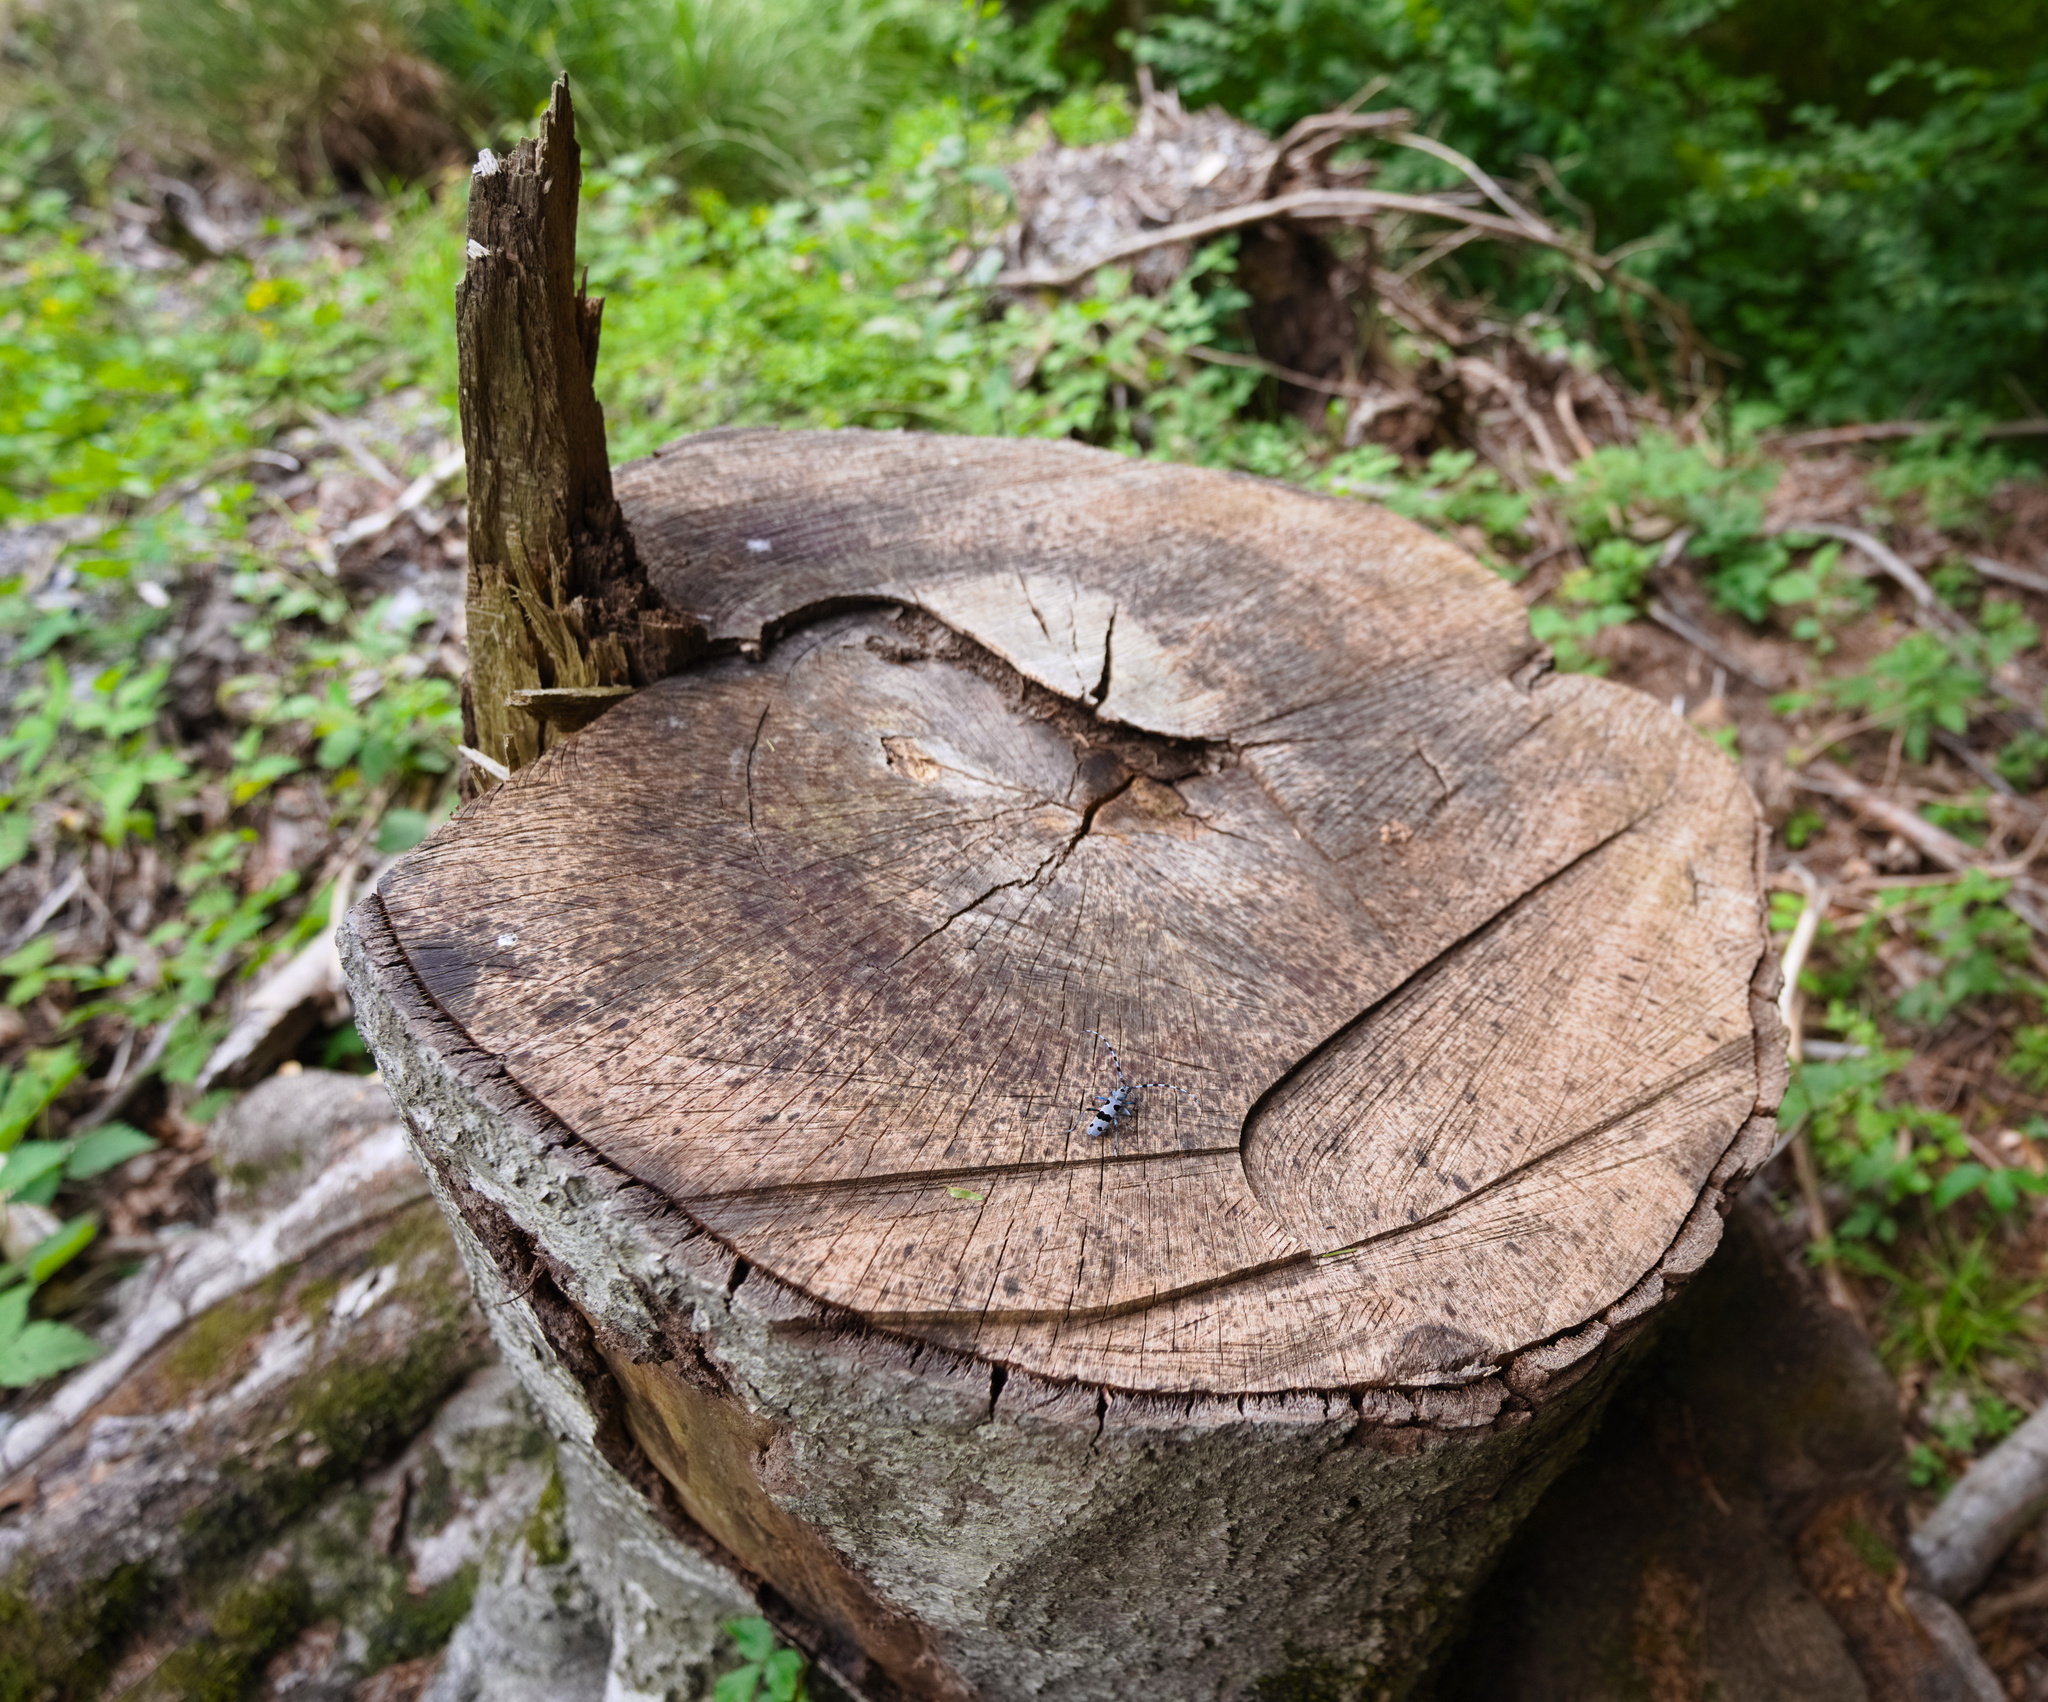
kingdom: Animalia
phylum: Arthropoda
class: Insecta
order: Coleoptera
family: Cerambycidae
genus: Rosalia
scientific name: Rosalia alpina
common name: Rosalia longicorn
